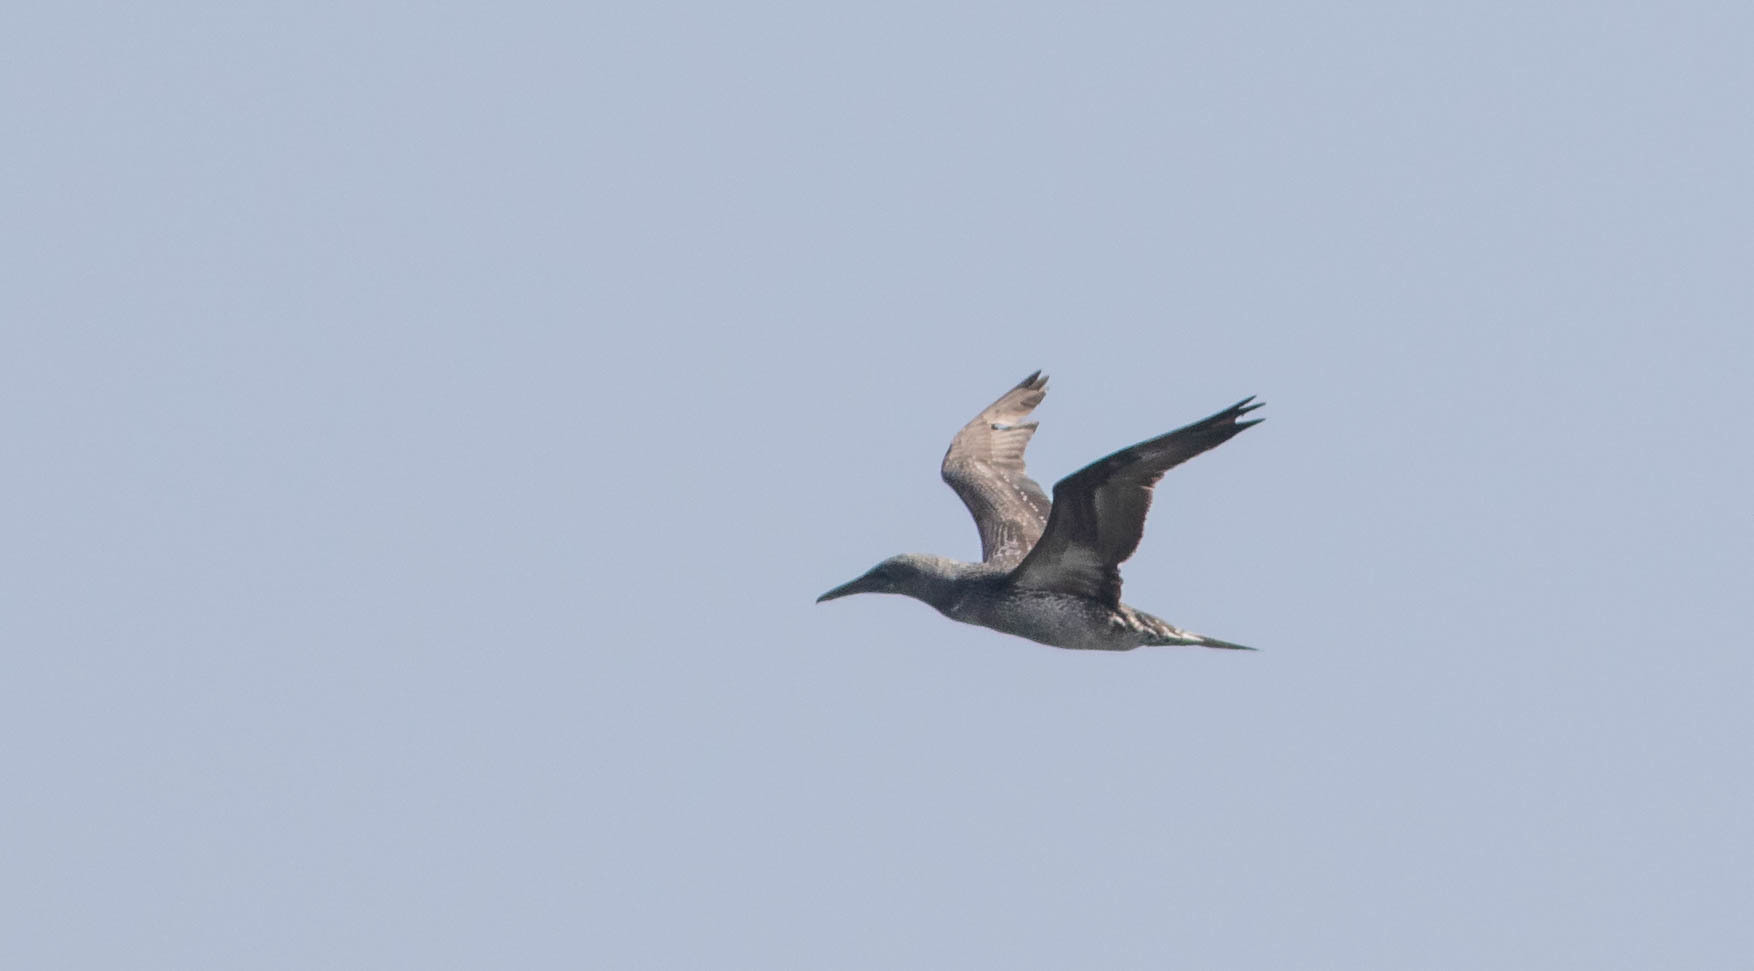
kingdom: Animalia
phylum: Chordata
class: Aves
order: Suliformes
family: Sulidae
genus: Morus
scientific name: Morus bassanus
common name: Northern gannet
